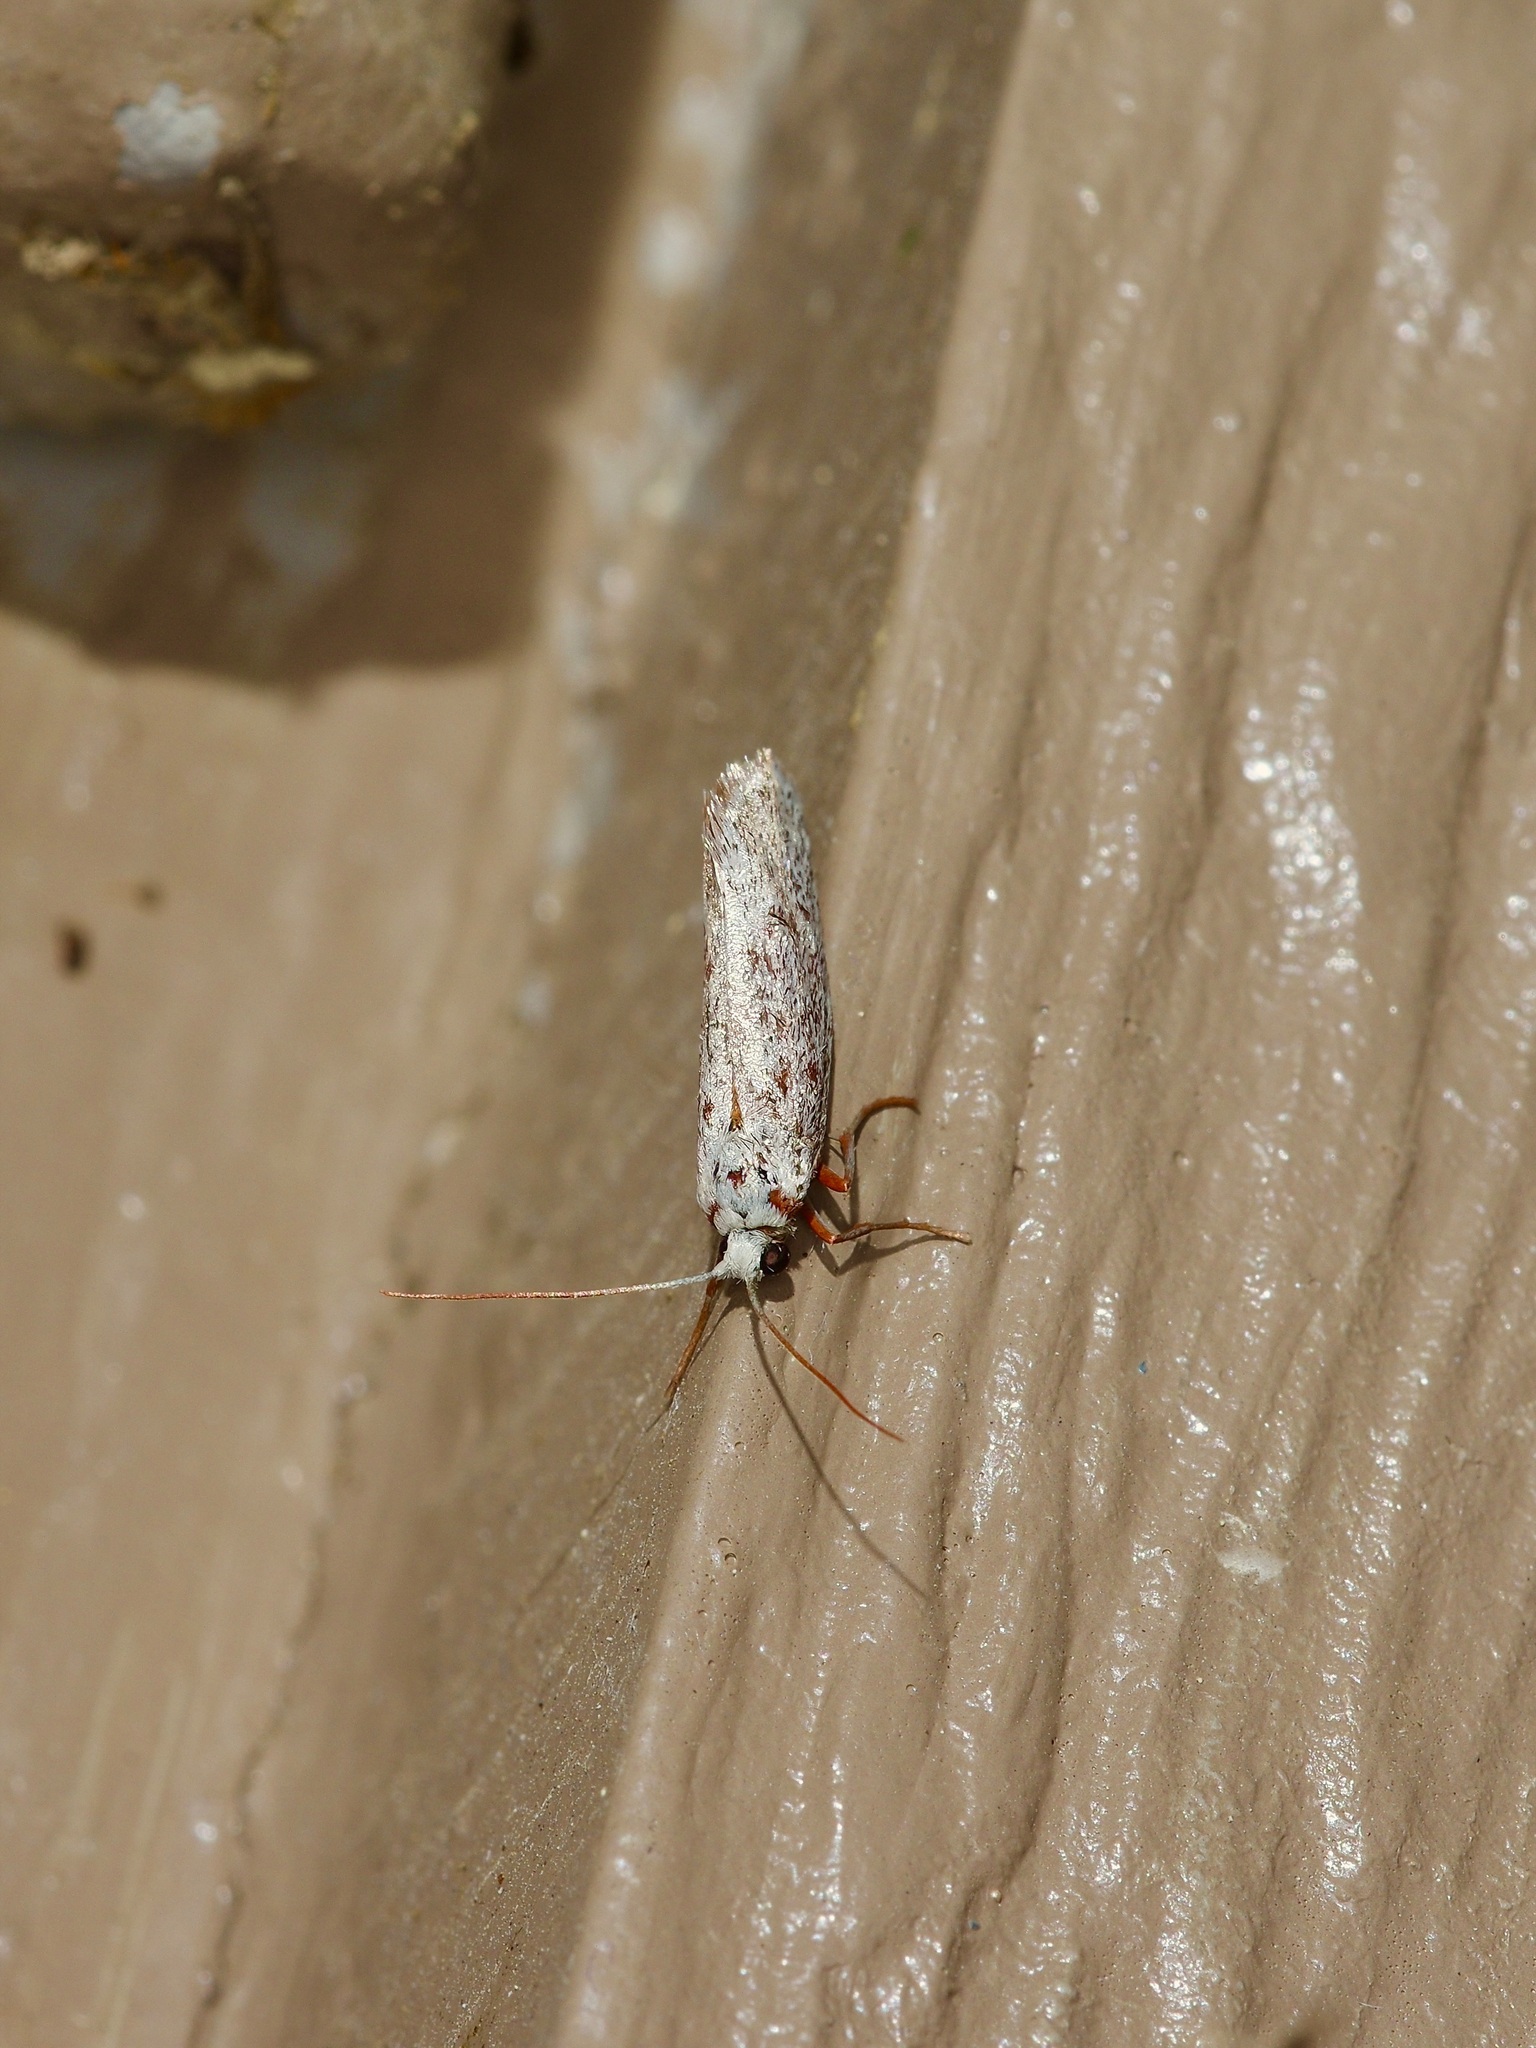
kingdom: Animalia
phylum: Arthropoda
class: Insecta
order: Lepidoptera
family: Lacturidae
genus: Lactura
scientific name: Lactura
